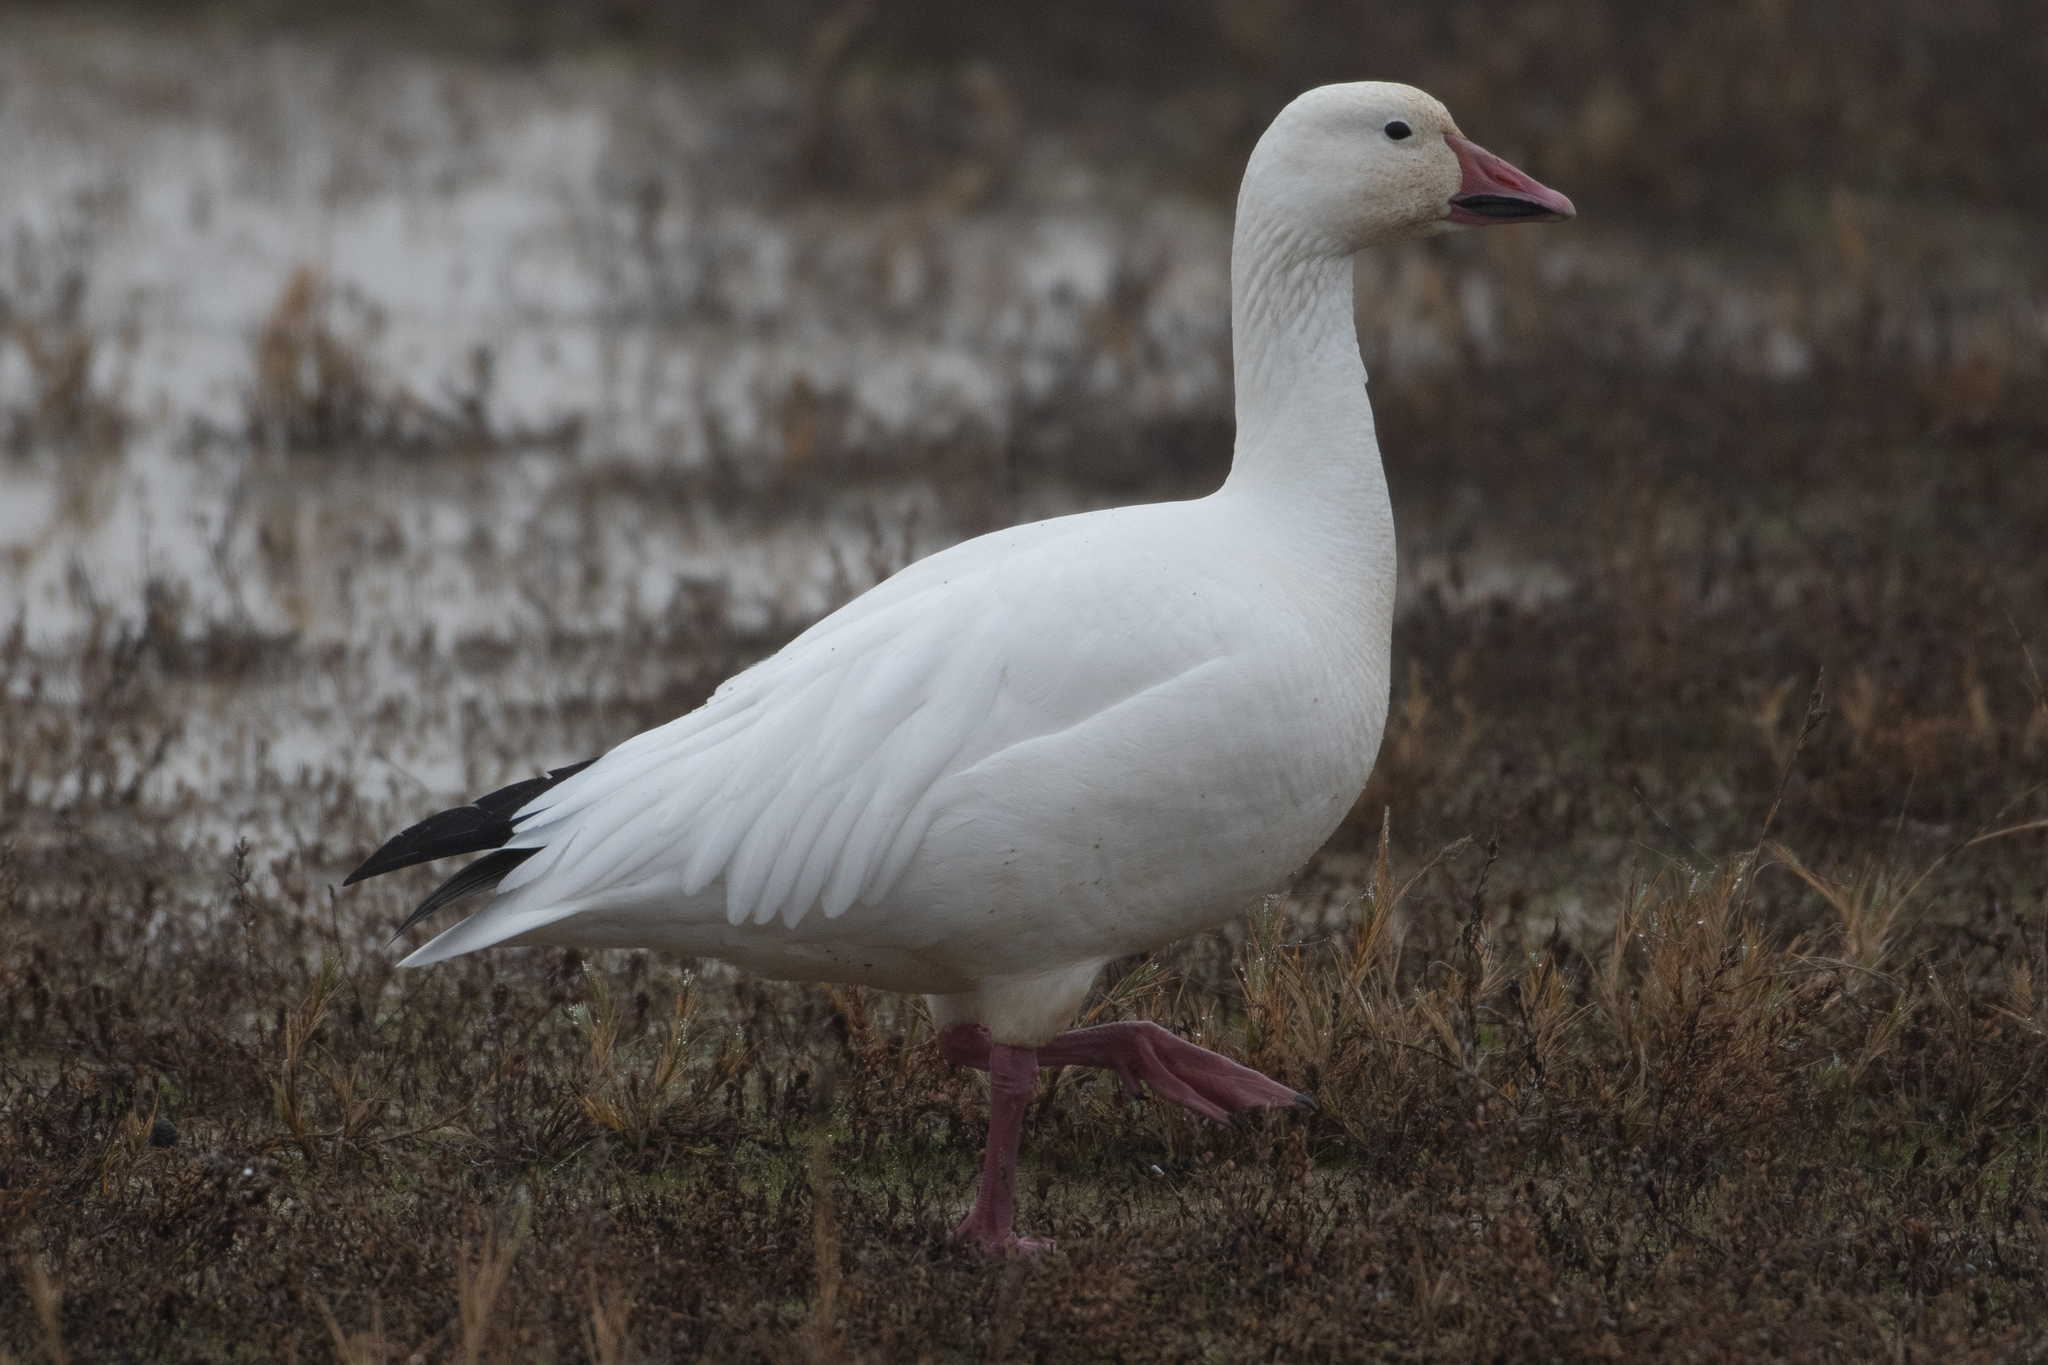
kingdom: Animalia
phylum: Chordata
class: Aves
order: Anseriformes
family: Anatidae
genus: Anser
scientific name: Anser caerulescens
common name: Snow goose
